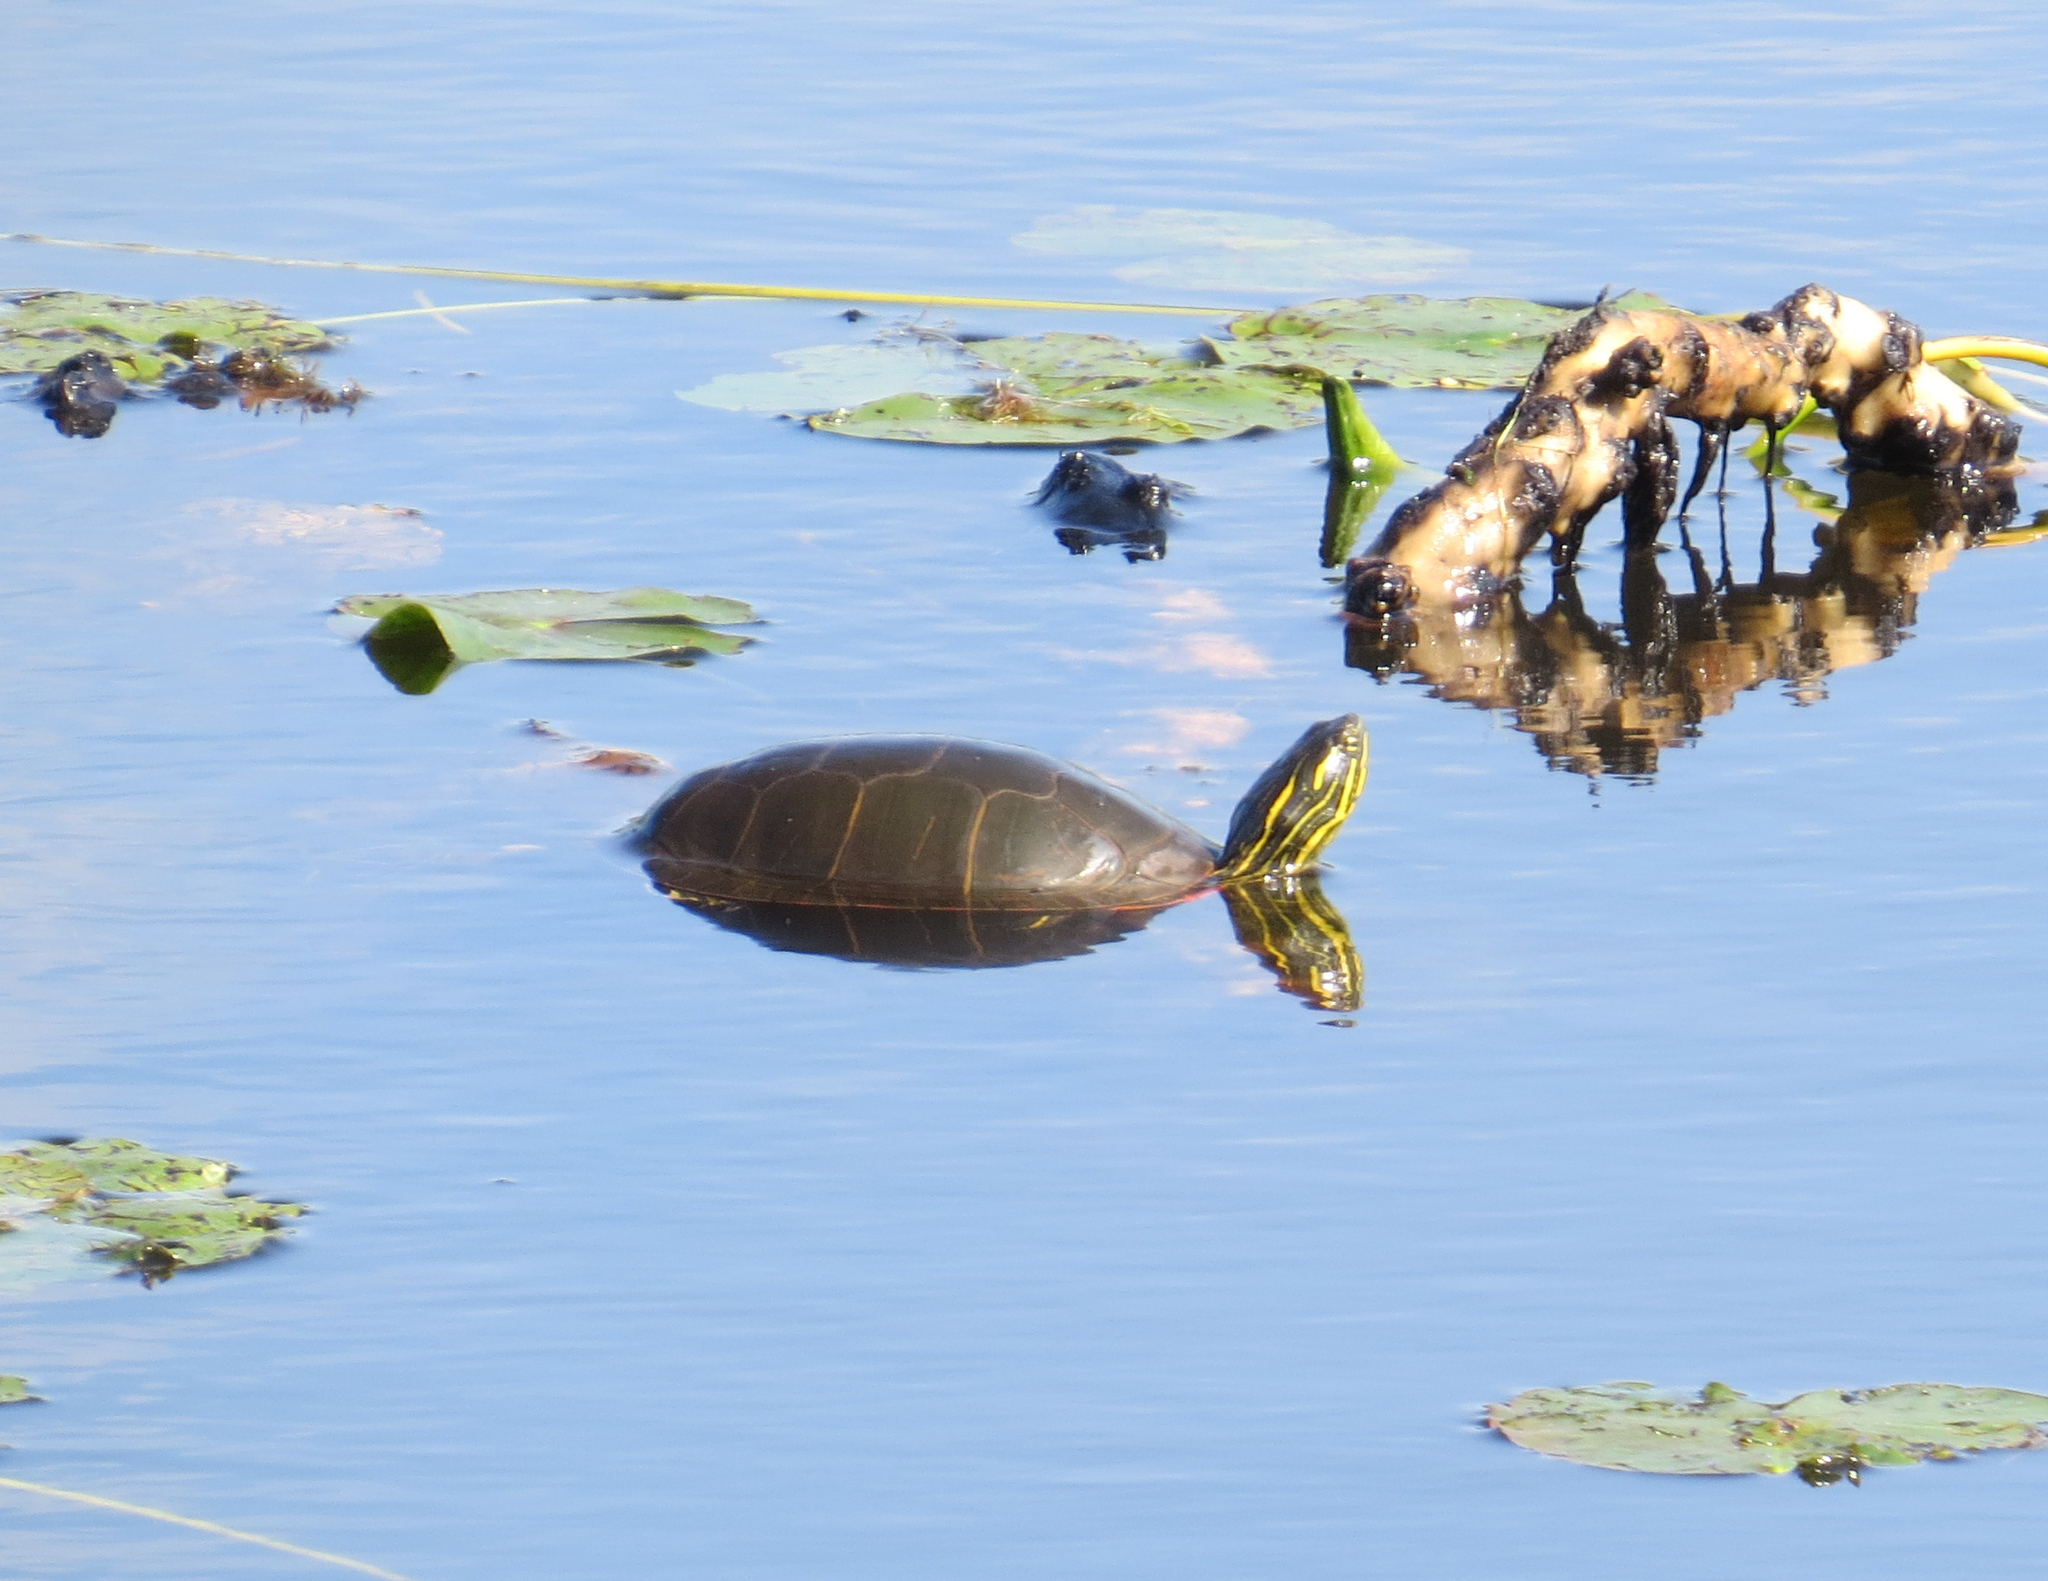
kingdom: Animalia
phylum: Chordata
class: Testudines
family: Emydidae
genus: Chrysemys
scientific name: Chrysemys picta
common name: Painted turtle
